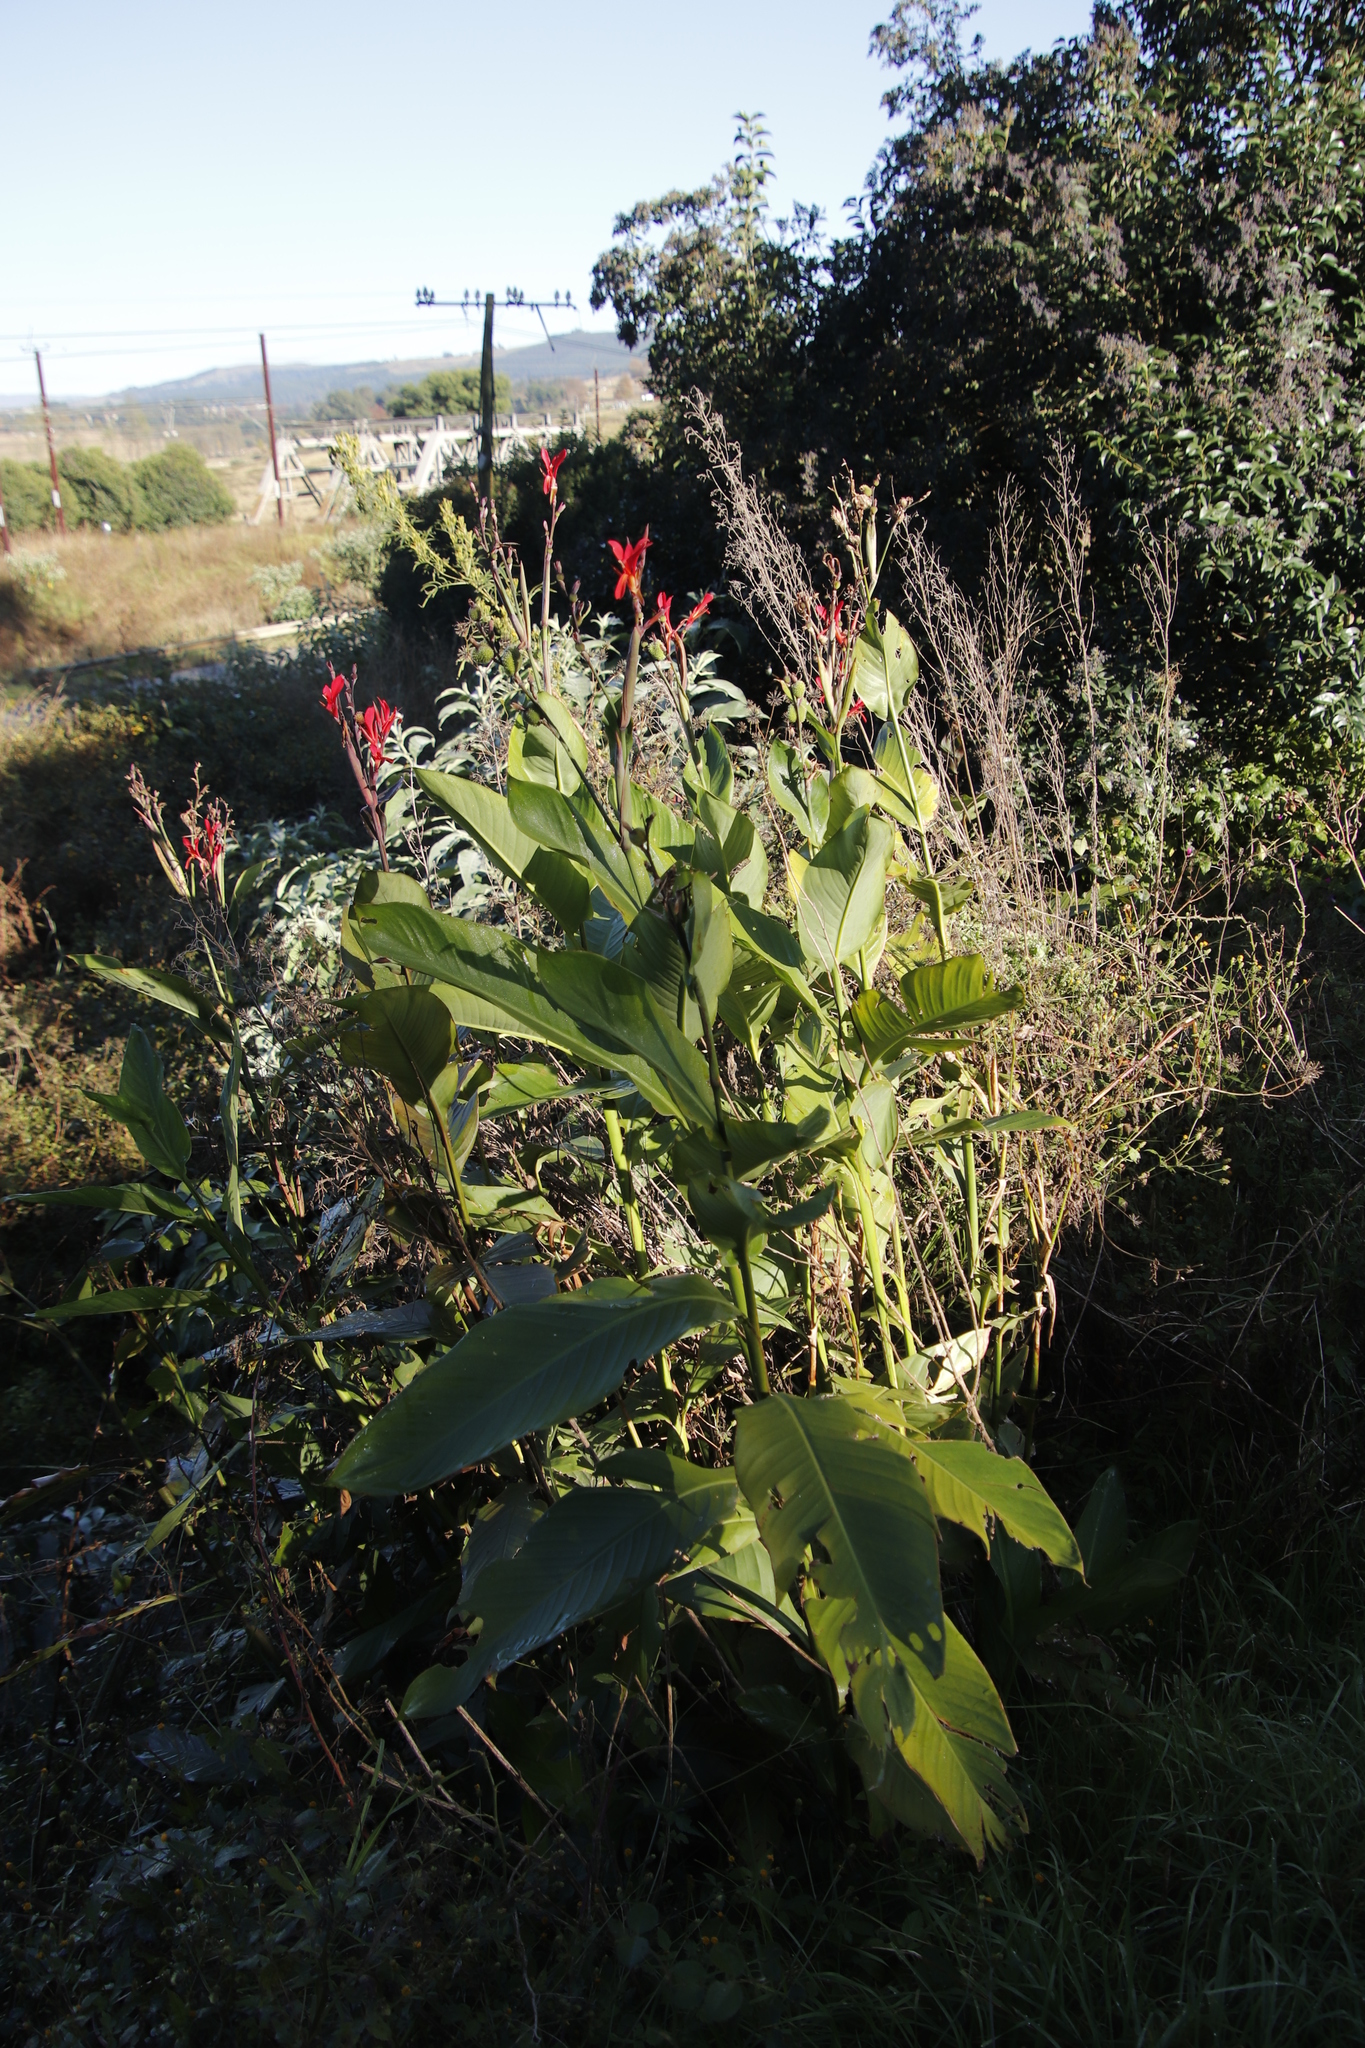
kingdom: Plantae
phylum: Tracheophyta
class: Liliopsida
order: Zingiberales
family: Cannaceae
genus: Canna
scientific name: Canna indica
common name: Indian shot
